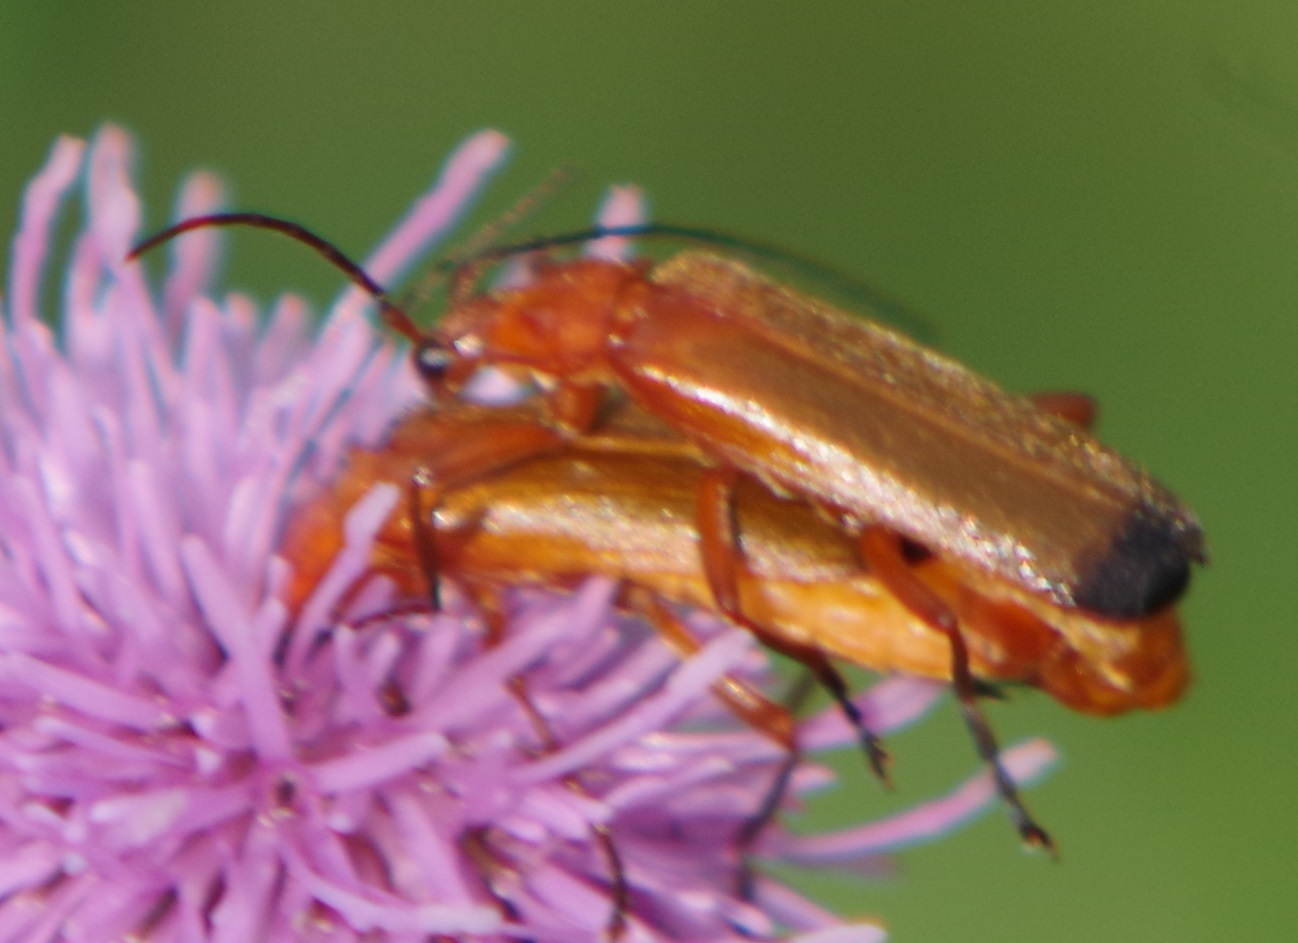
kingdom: Animalia
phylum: Arthropoda
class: Insecta
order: Coleoptera
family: Cantharidae
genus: Rhagonycha
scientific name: Rhagonycha fulva
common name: Common red soldier beetle
